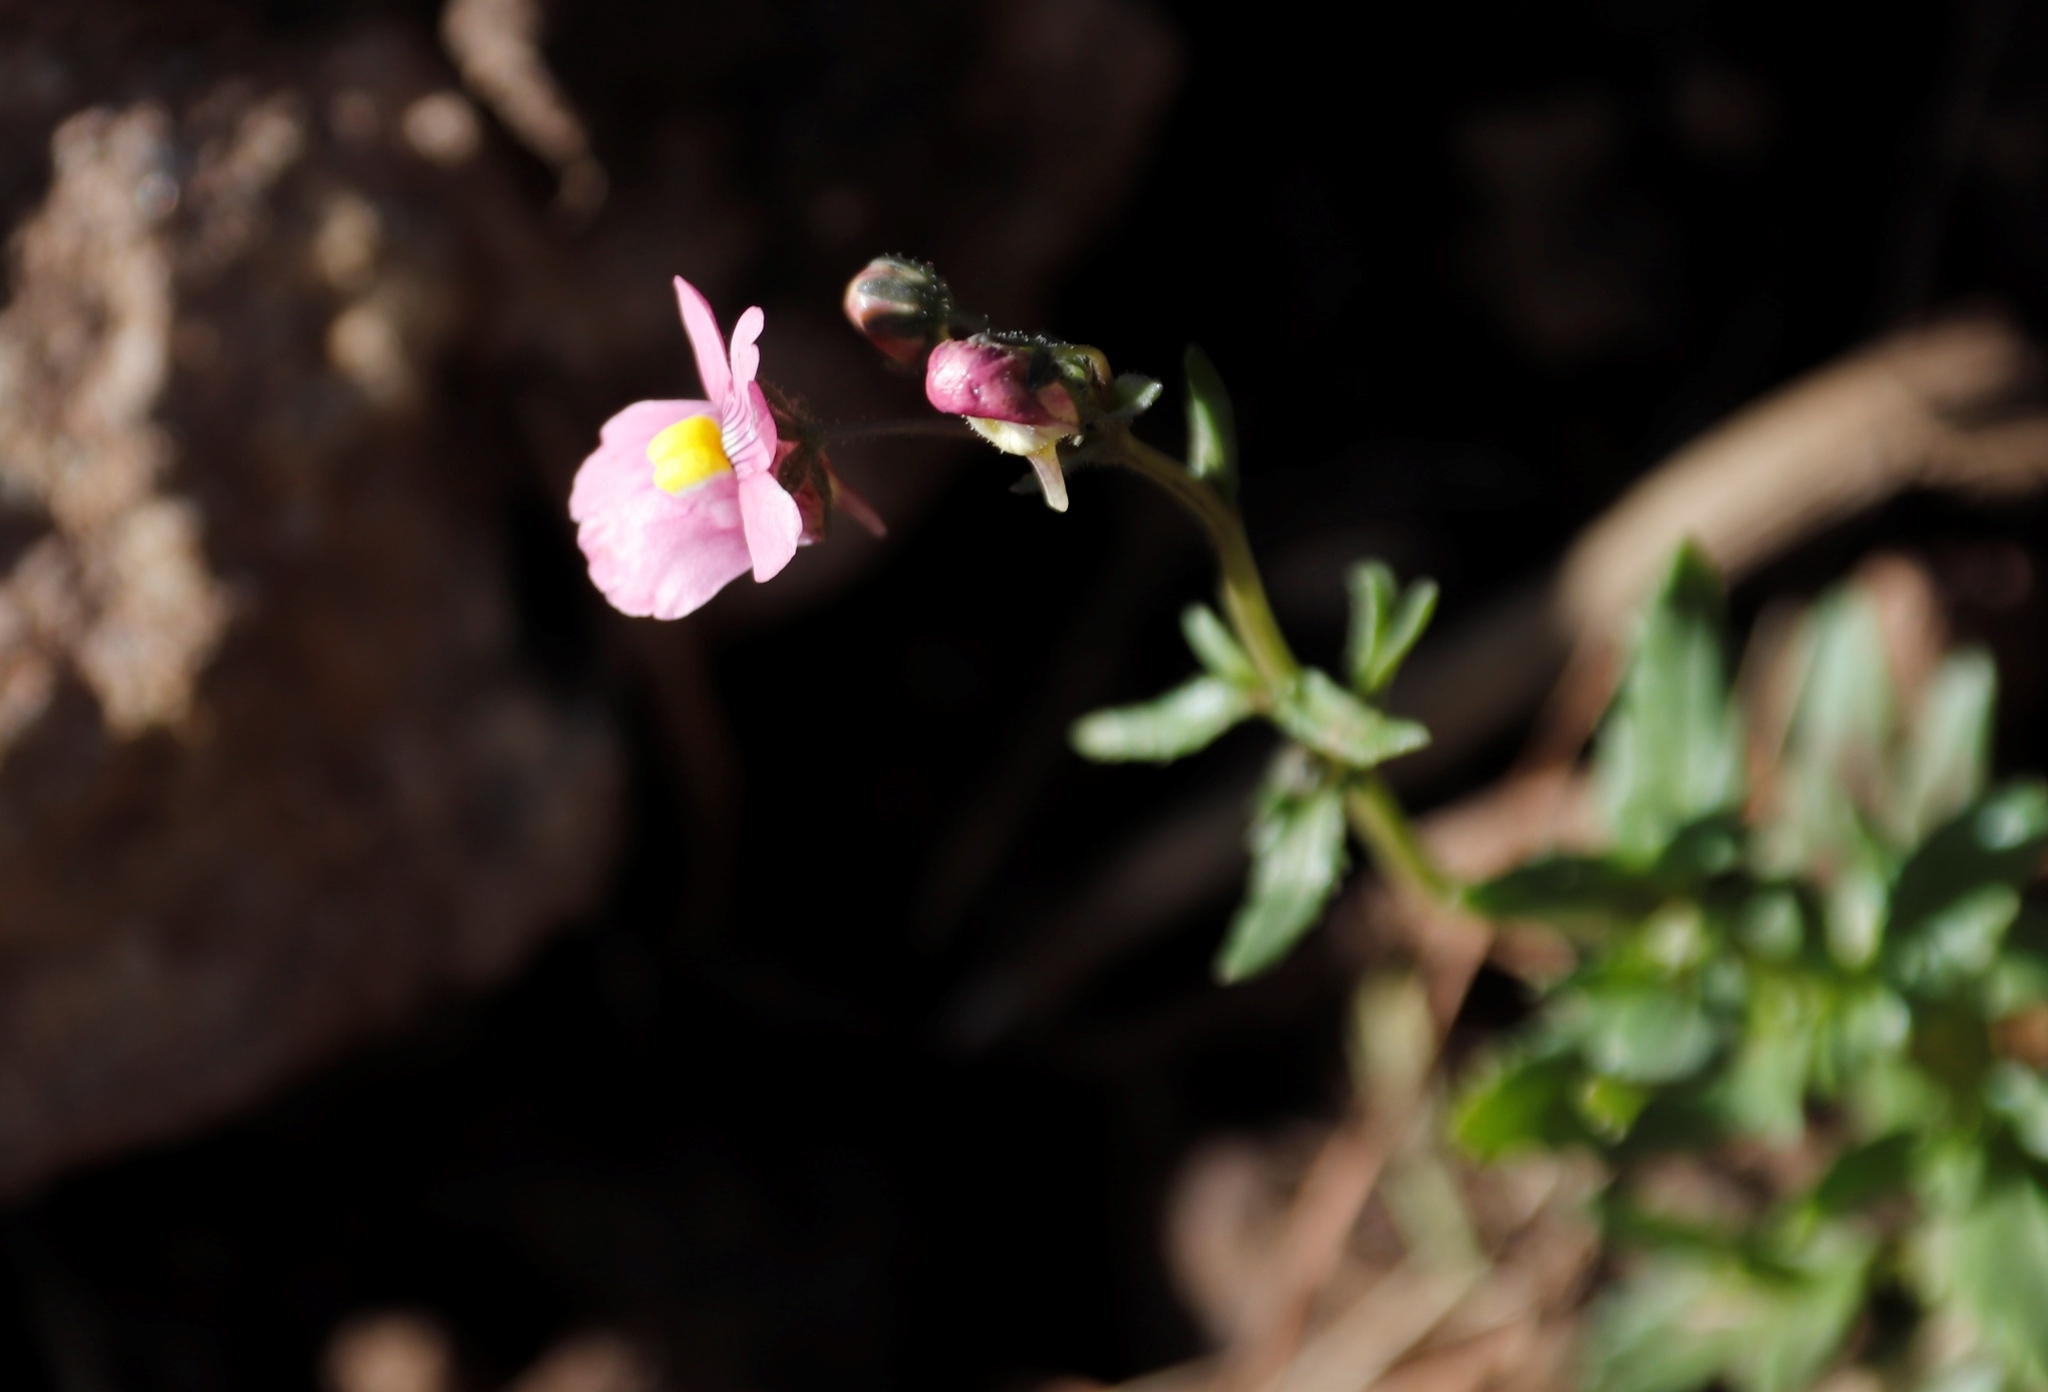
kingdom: Plantae
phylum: Tracheophyta
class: Magnoliopsida
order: Lamiales
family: Scrophulariaceae
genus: Nemesia
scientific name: Nemesia fruticans
